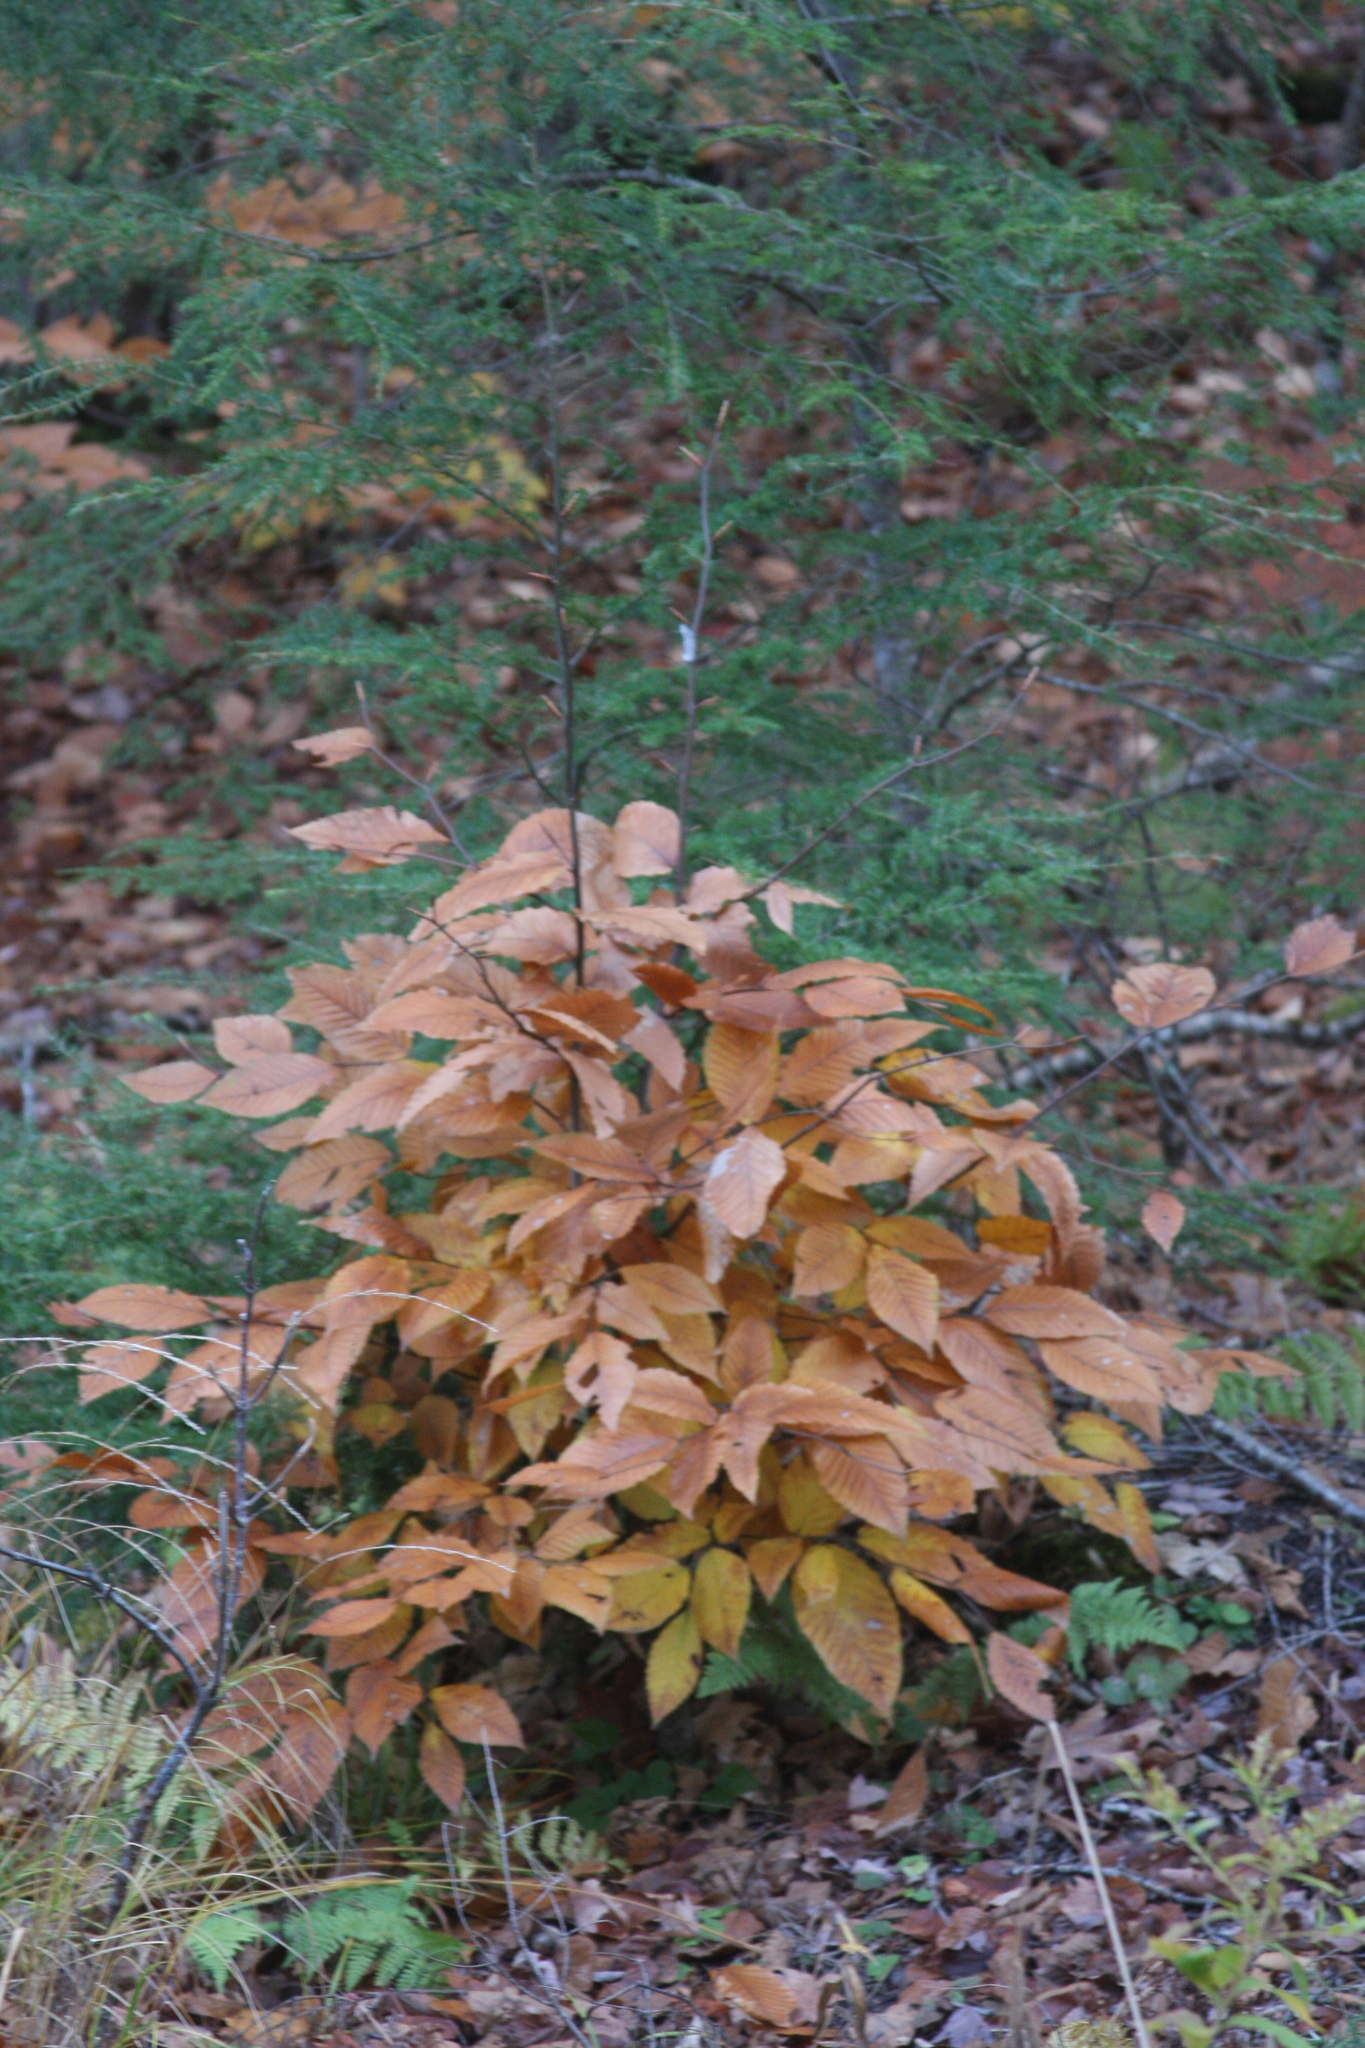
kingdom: Plantae
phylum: Tracheophyta
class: Magnoliopsida
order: Fagales
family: Fagaceae
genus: Fagus
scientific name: Fagus grandifolia
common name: American beech
